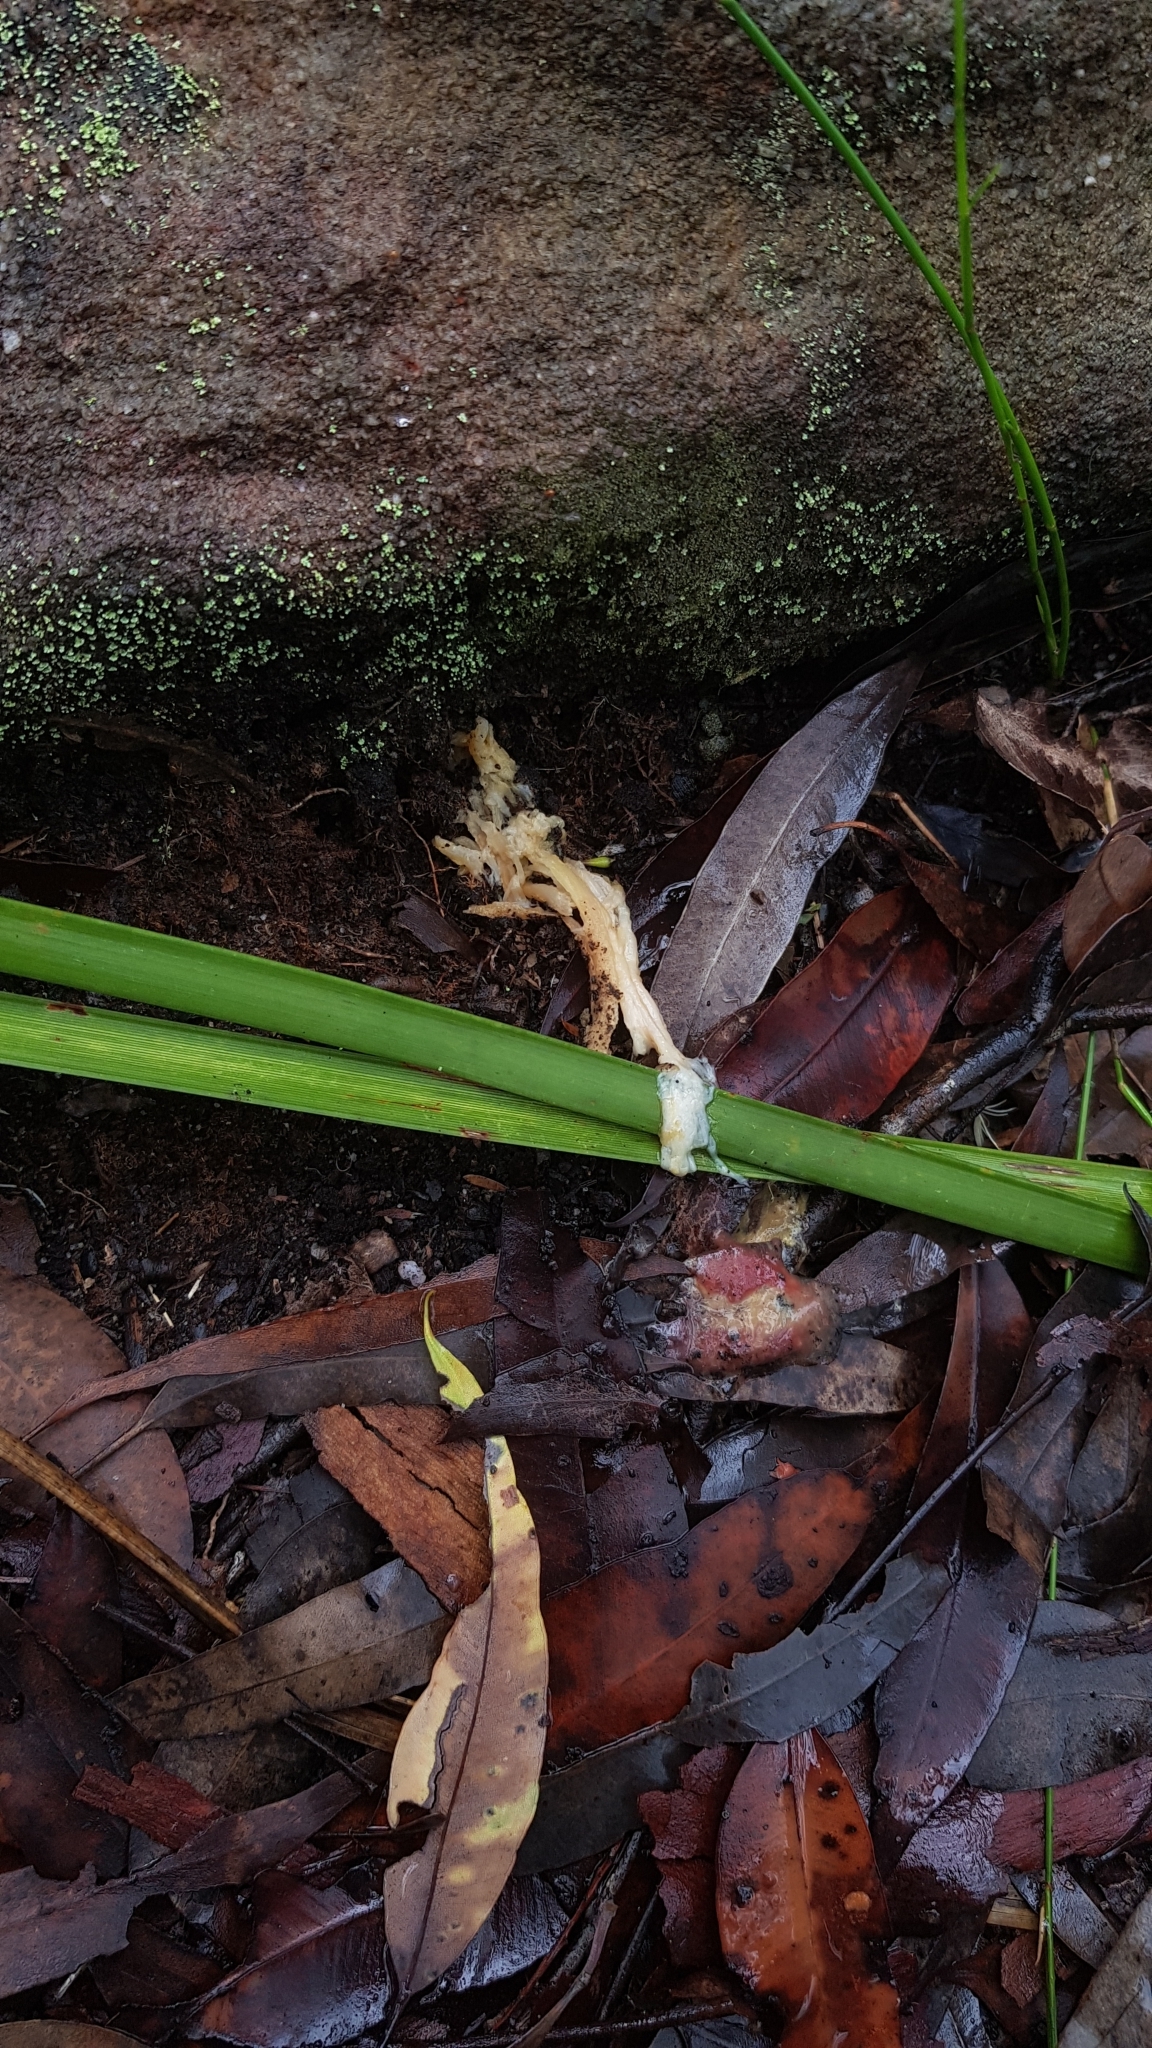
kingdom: Fungi
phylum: Basidiomycota
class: Agaricomycetes
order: Boletales
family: Boletaceae
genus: Boletellus
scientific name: Boletellus obscurecoccineus
